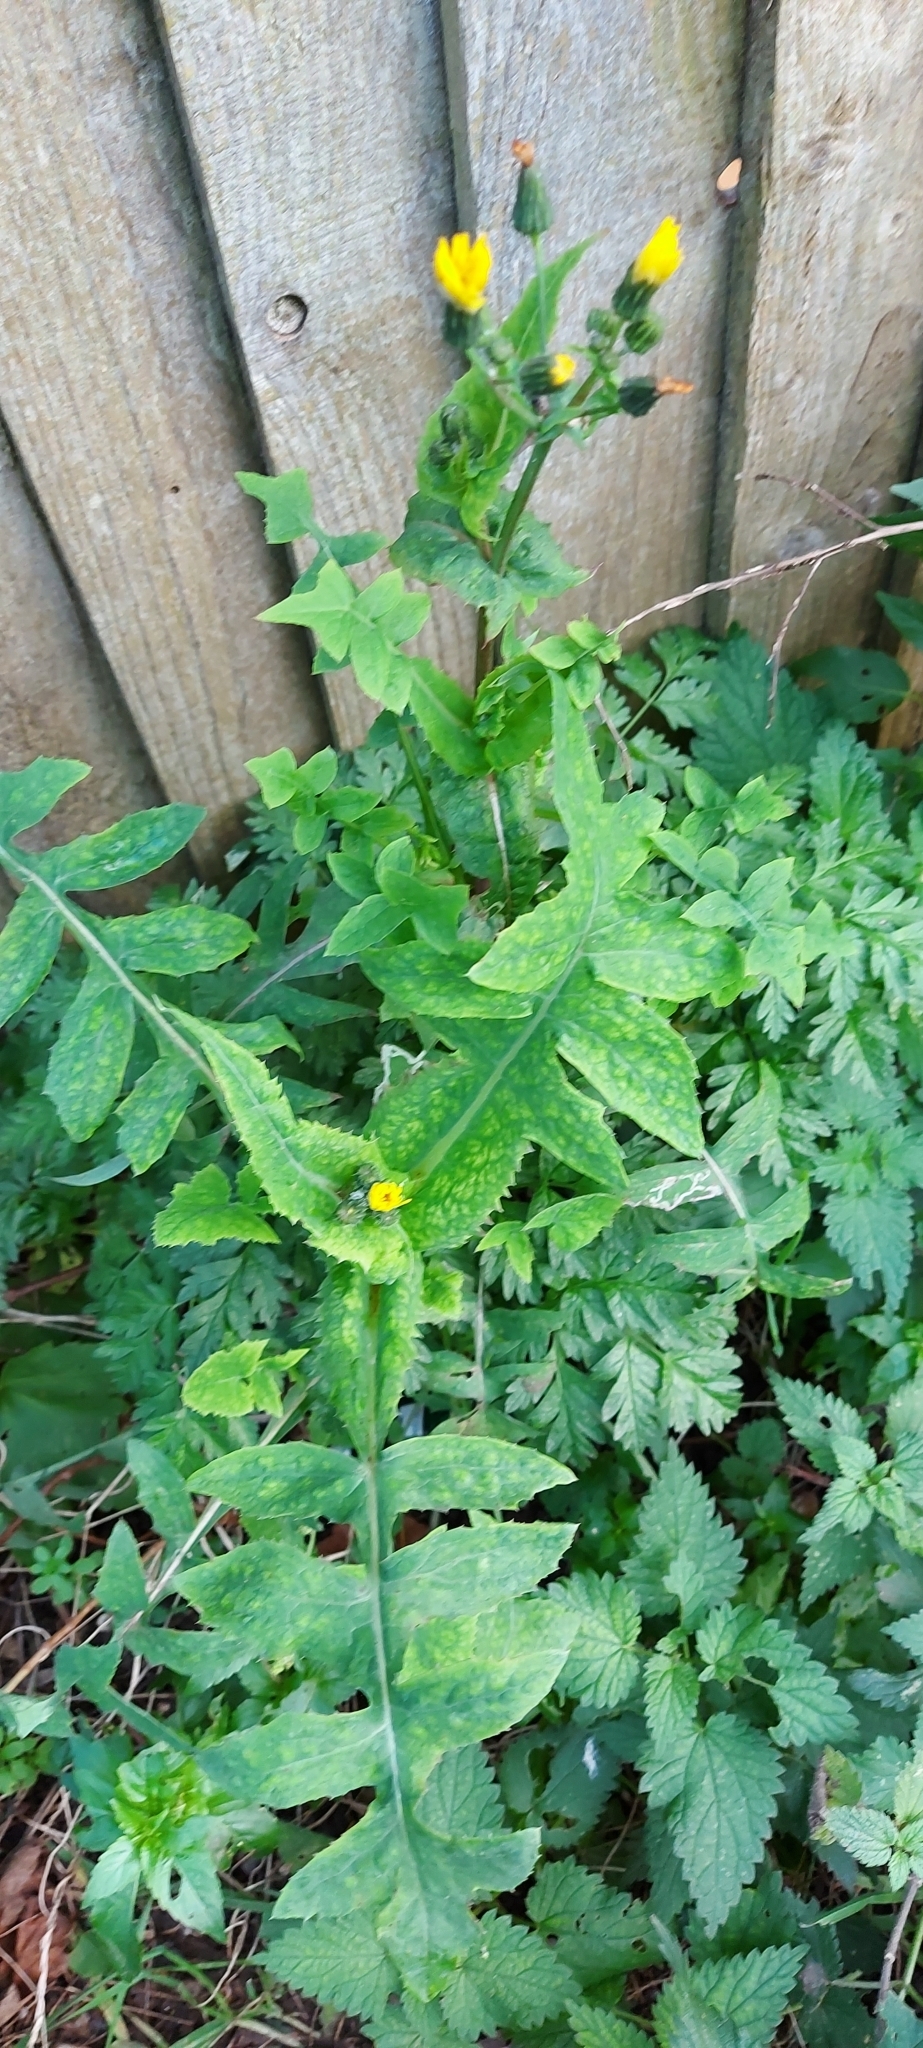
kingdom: Plantae
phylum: Tracheophyta
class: Magnoliopsida
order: Asterales
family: Asteraceae
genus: Sonchus
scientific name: Sonchus oleraceus
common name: Common sowthistle
